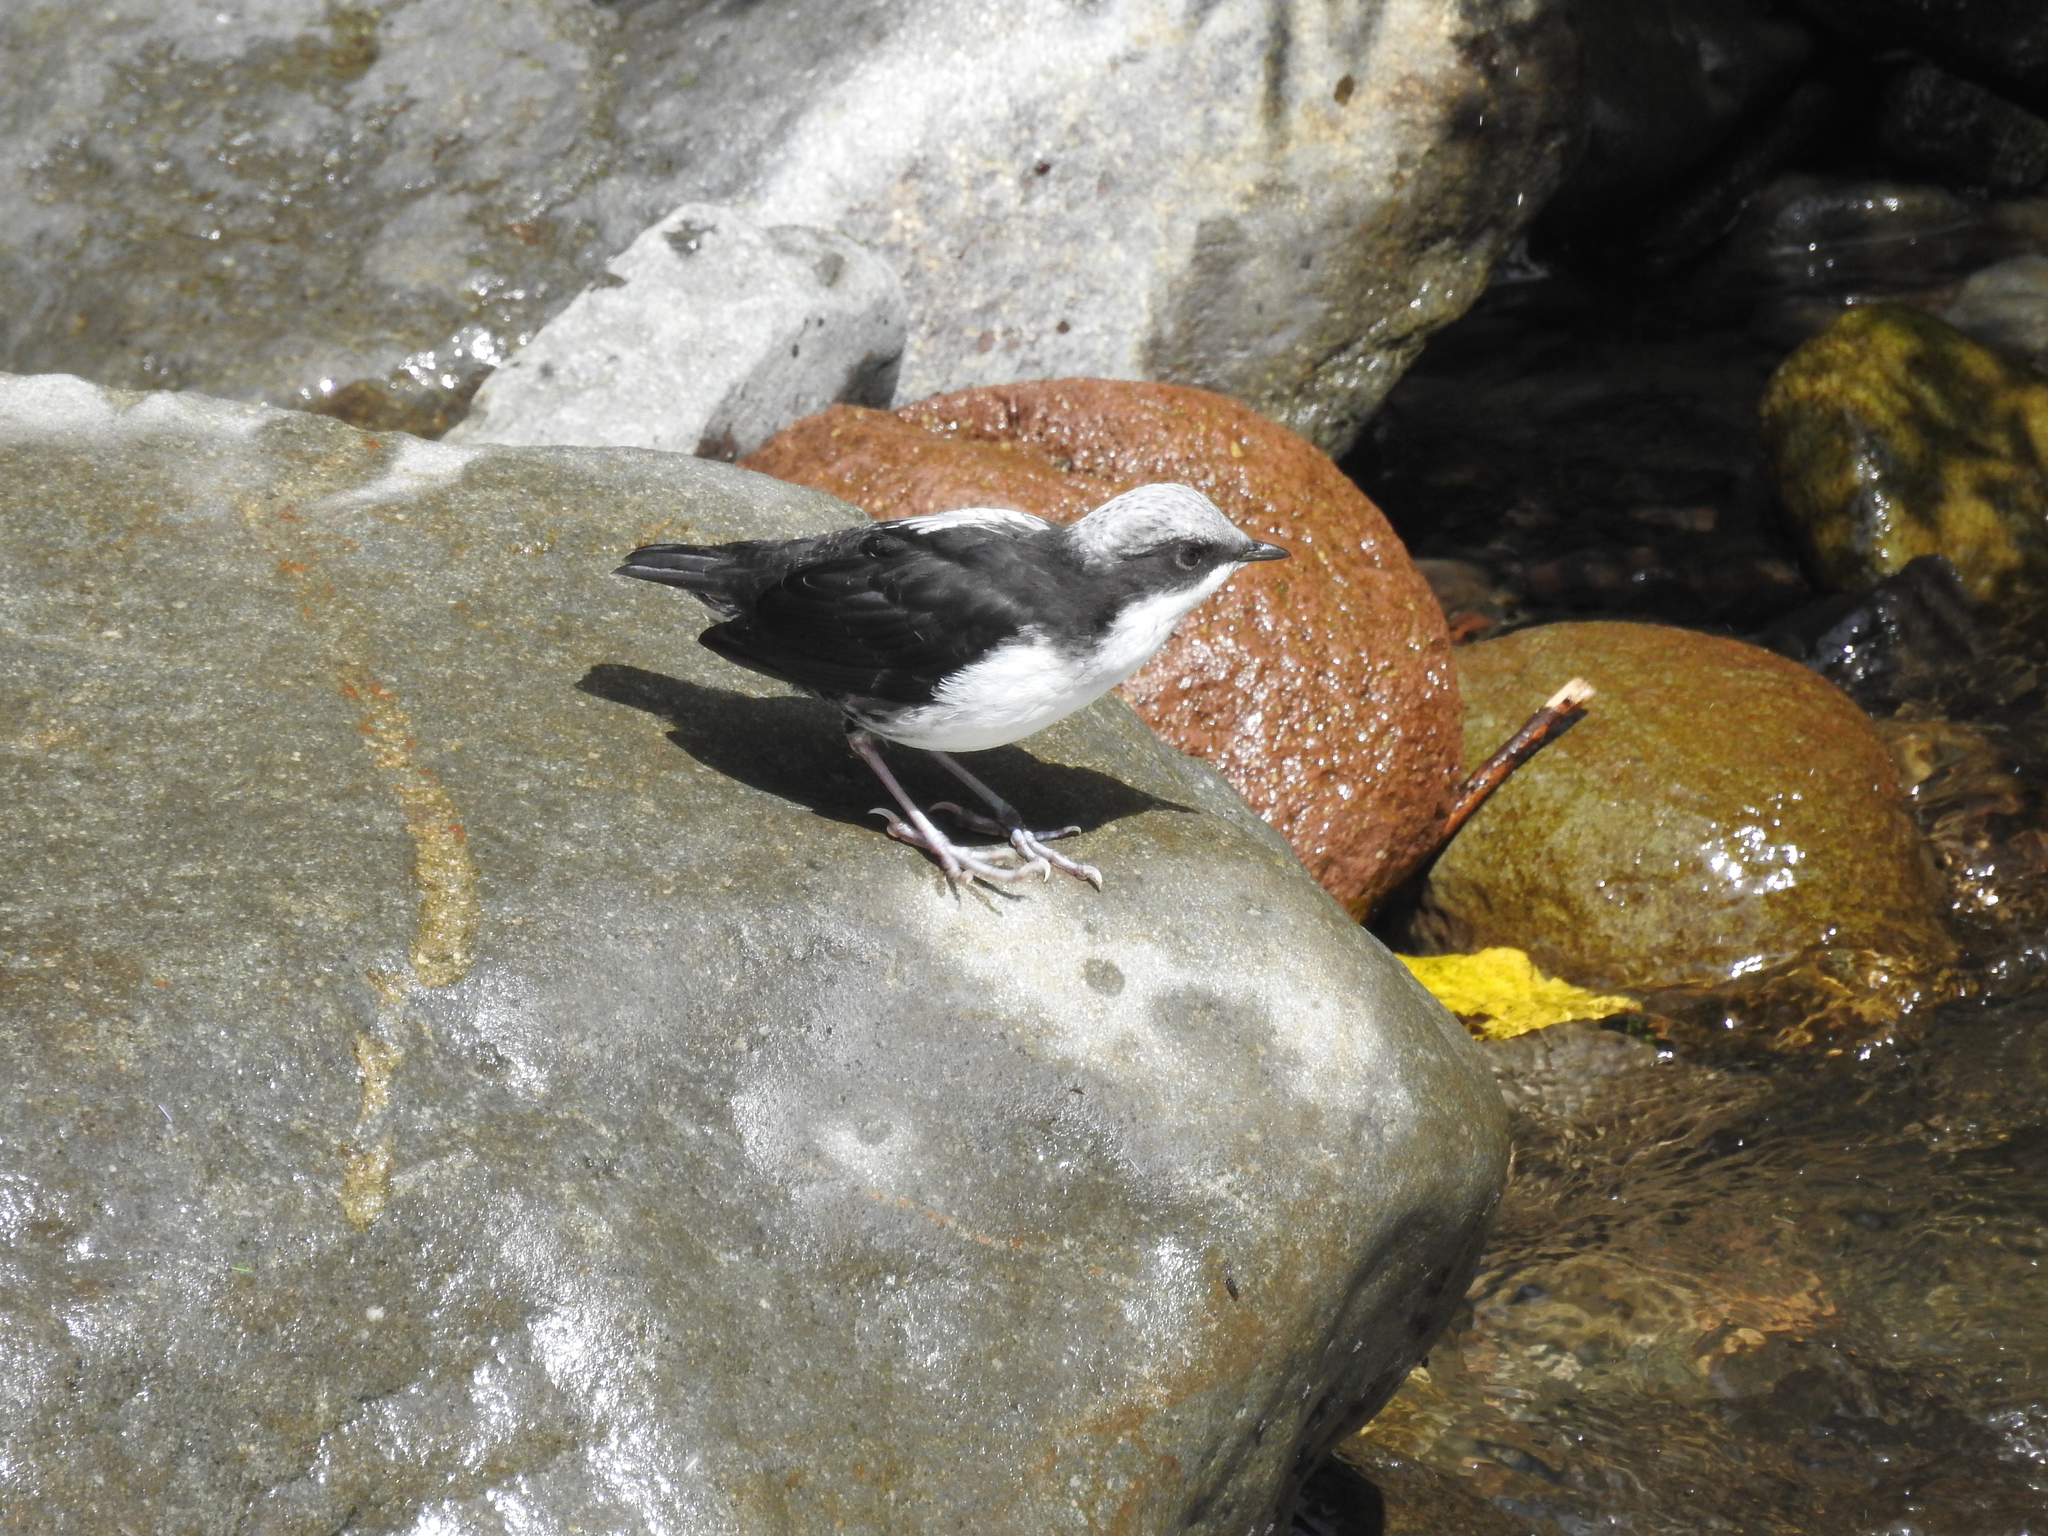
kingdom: Animalia
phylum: Chordata
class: Aves
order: Passeriformes
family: Cinclidae
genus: Cinclus
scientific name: Cinclus leucocephalus
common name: White-capped dipper
